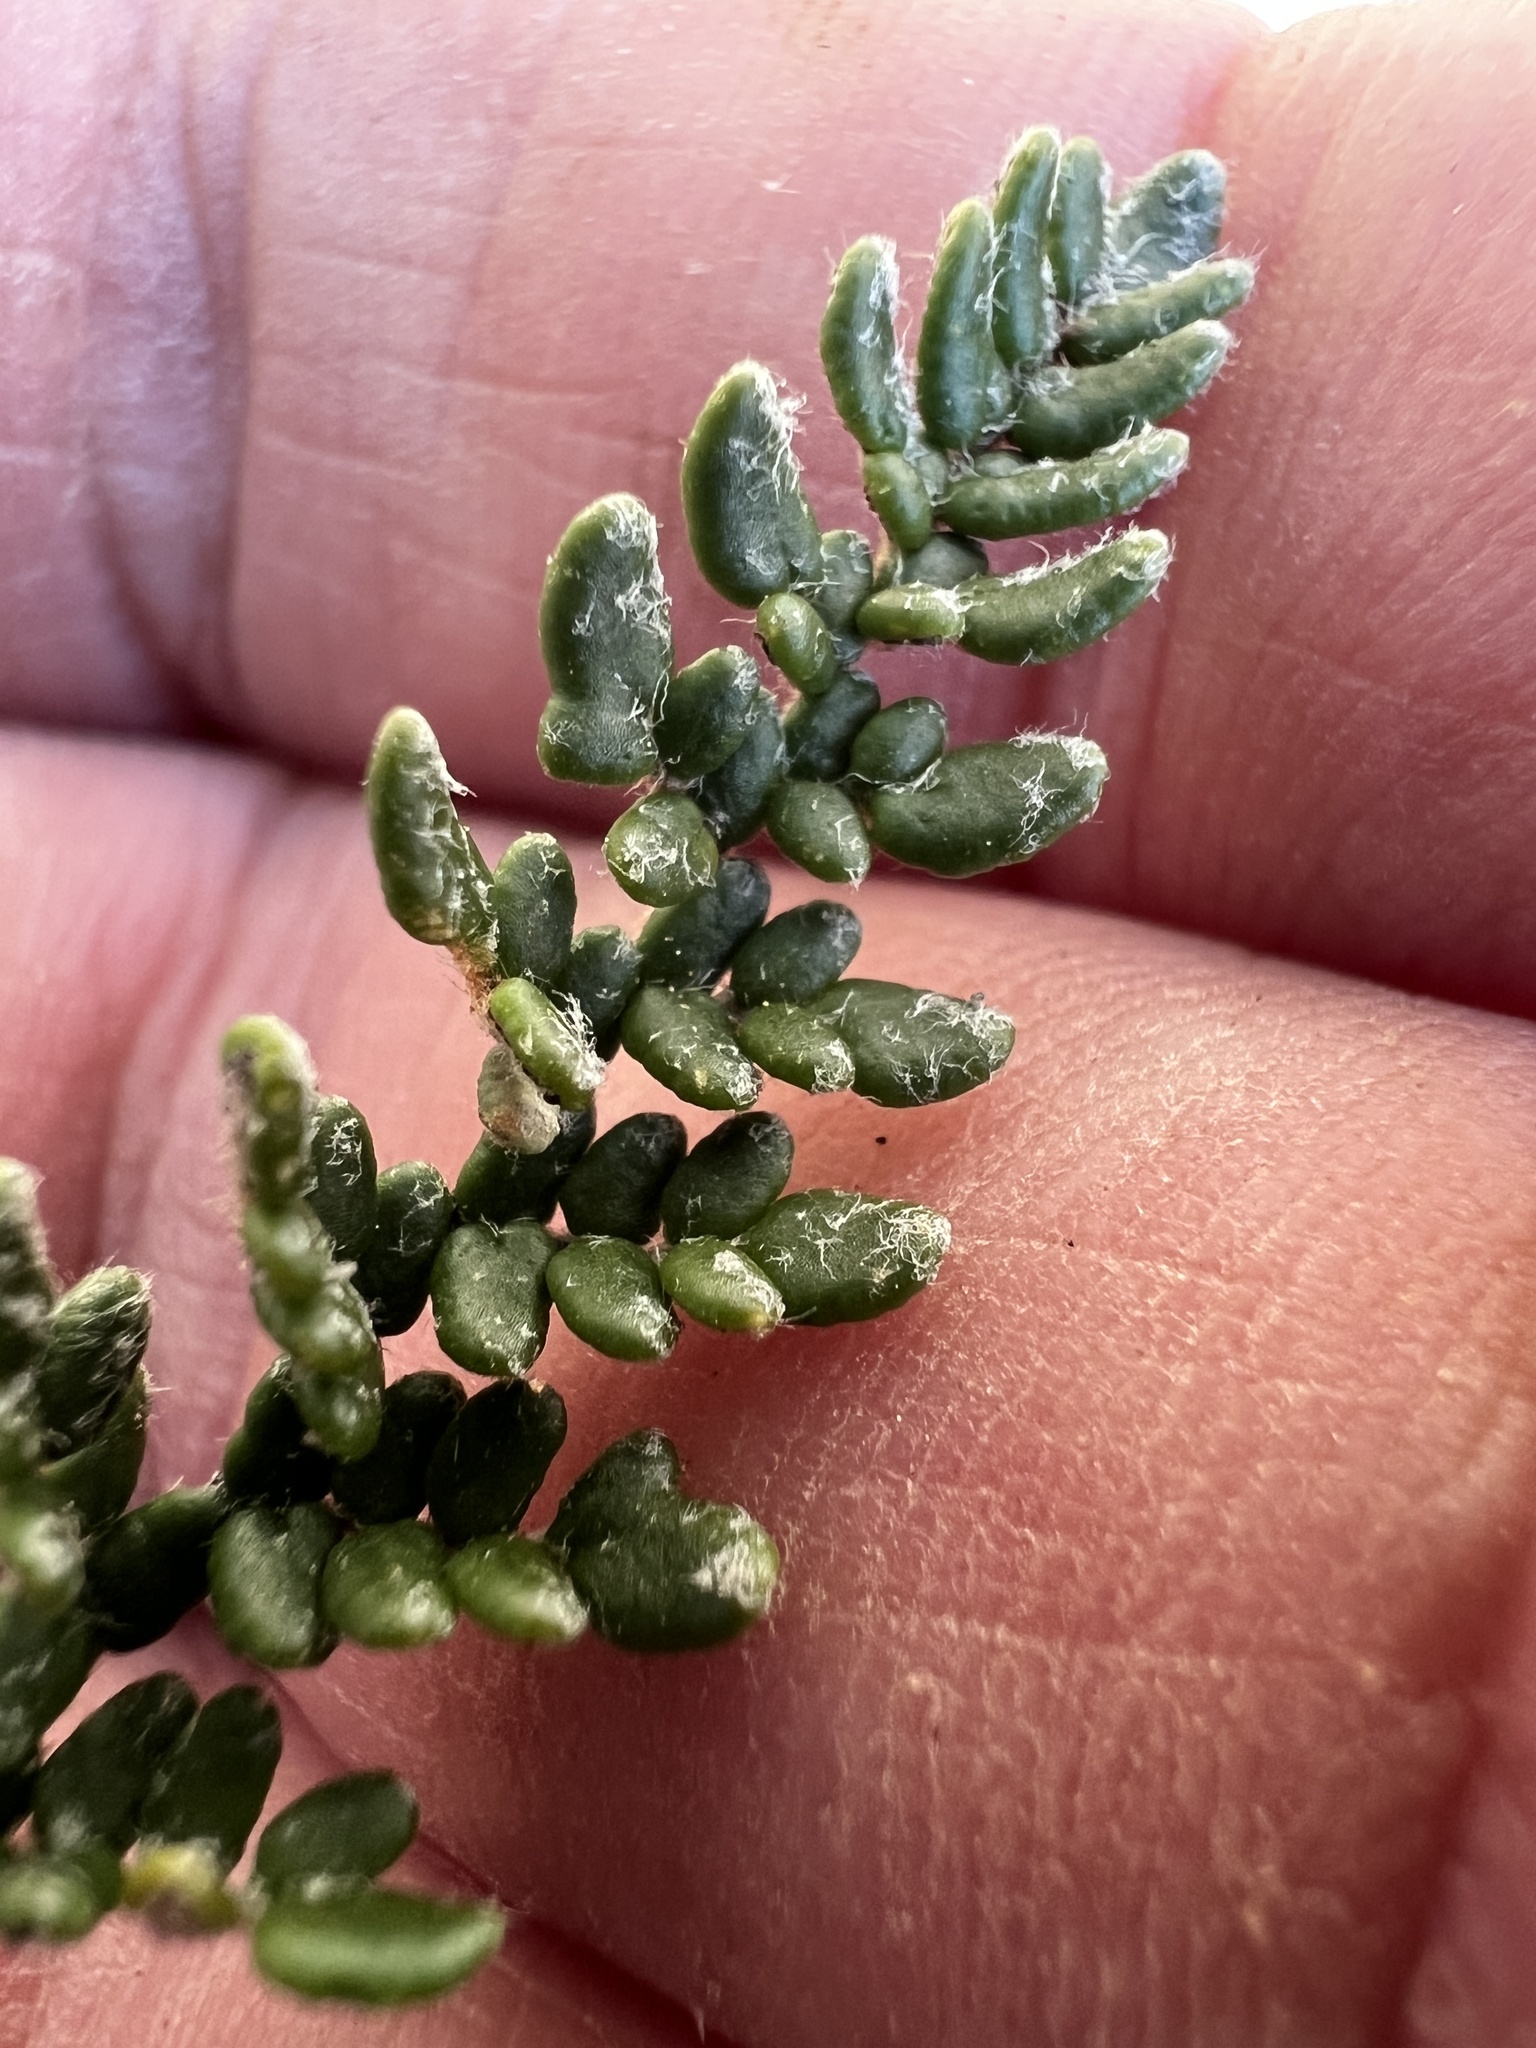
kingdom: Plantae
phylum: Tracheophyta
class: Polypodiopsida
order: Polypodiales
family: Pteridaceae
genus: Myriopteris
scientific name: Myriopteris gracillima
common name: Lace fern
